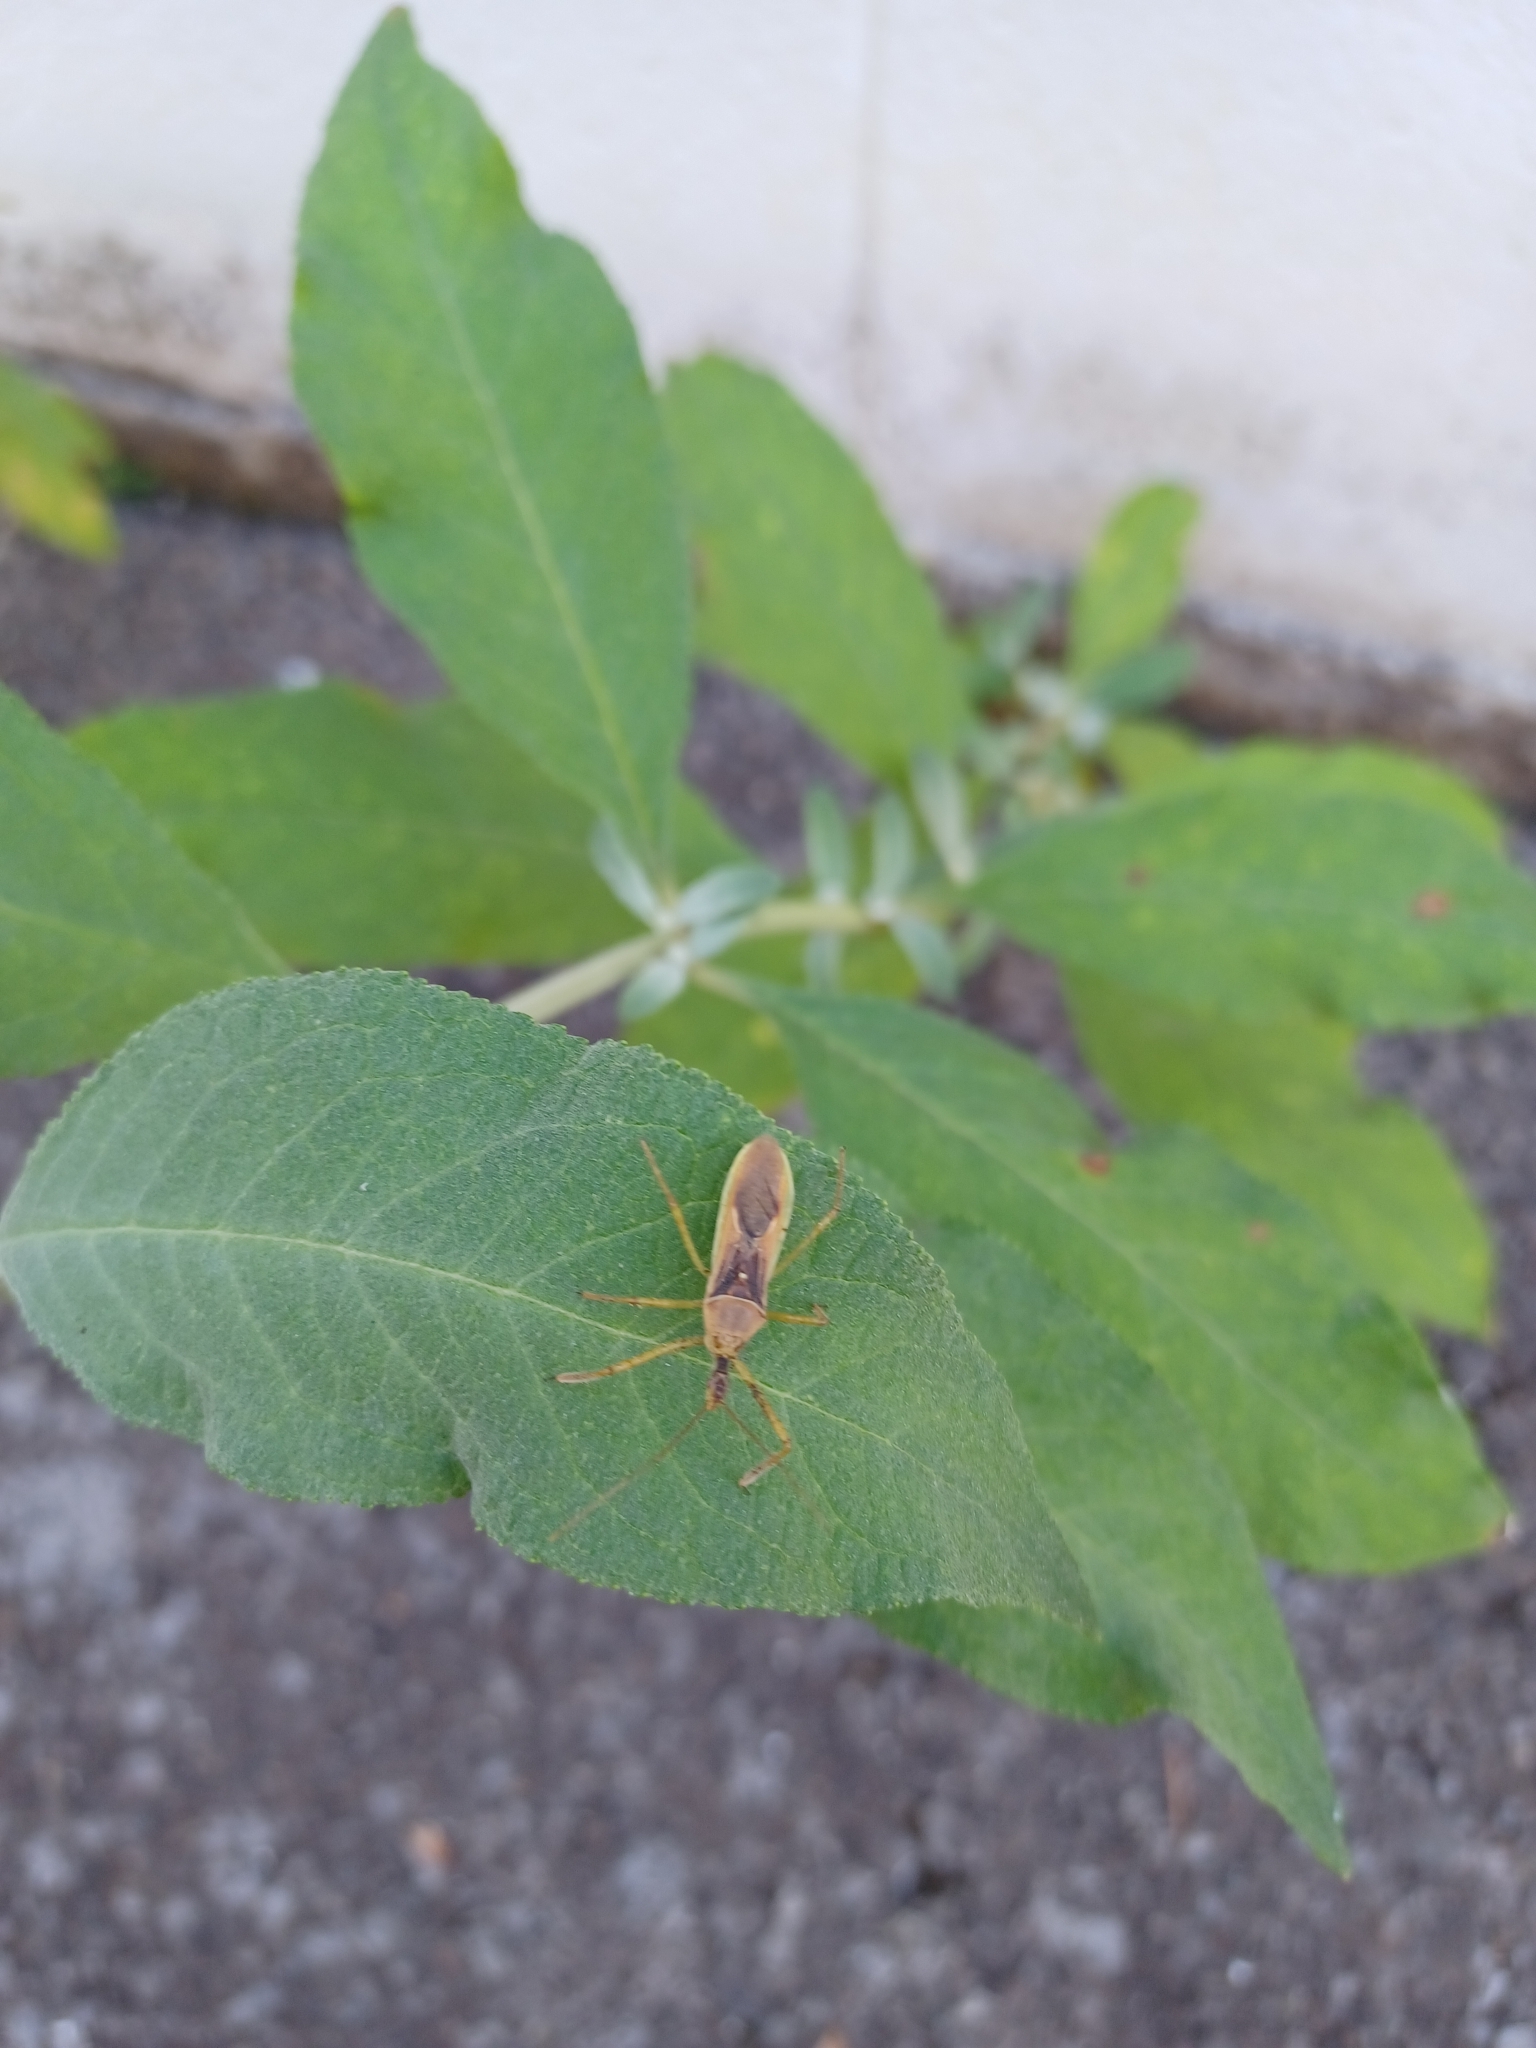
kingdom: Animalia
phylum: Arthropoda
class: Insecta
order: Hemiptera
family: Reduviidae
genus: Zelus
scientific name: Zelus renardii
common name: Assassin bug
